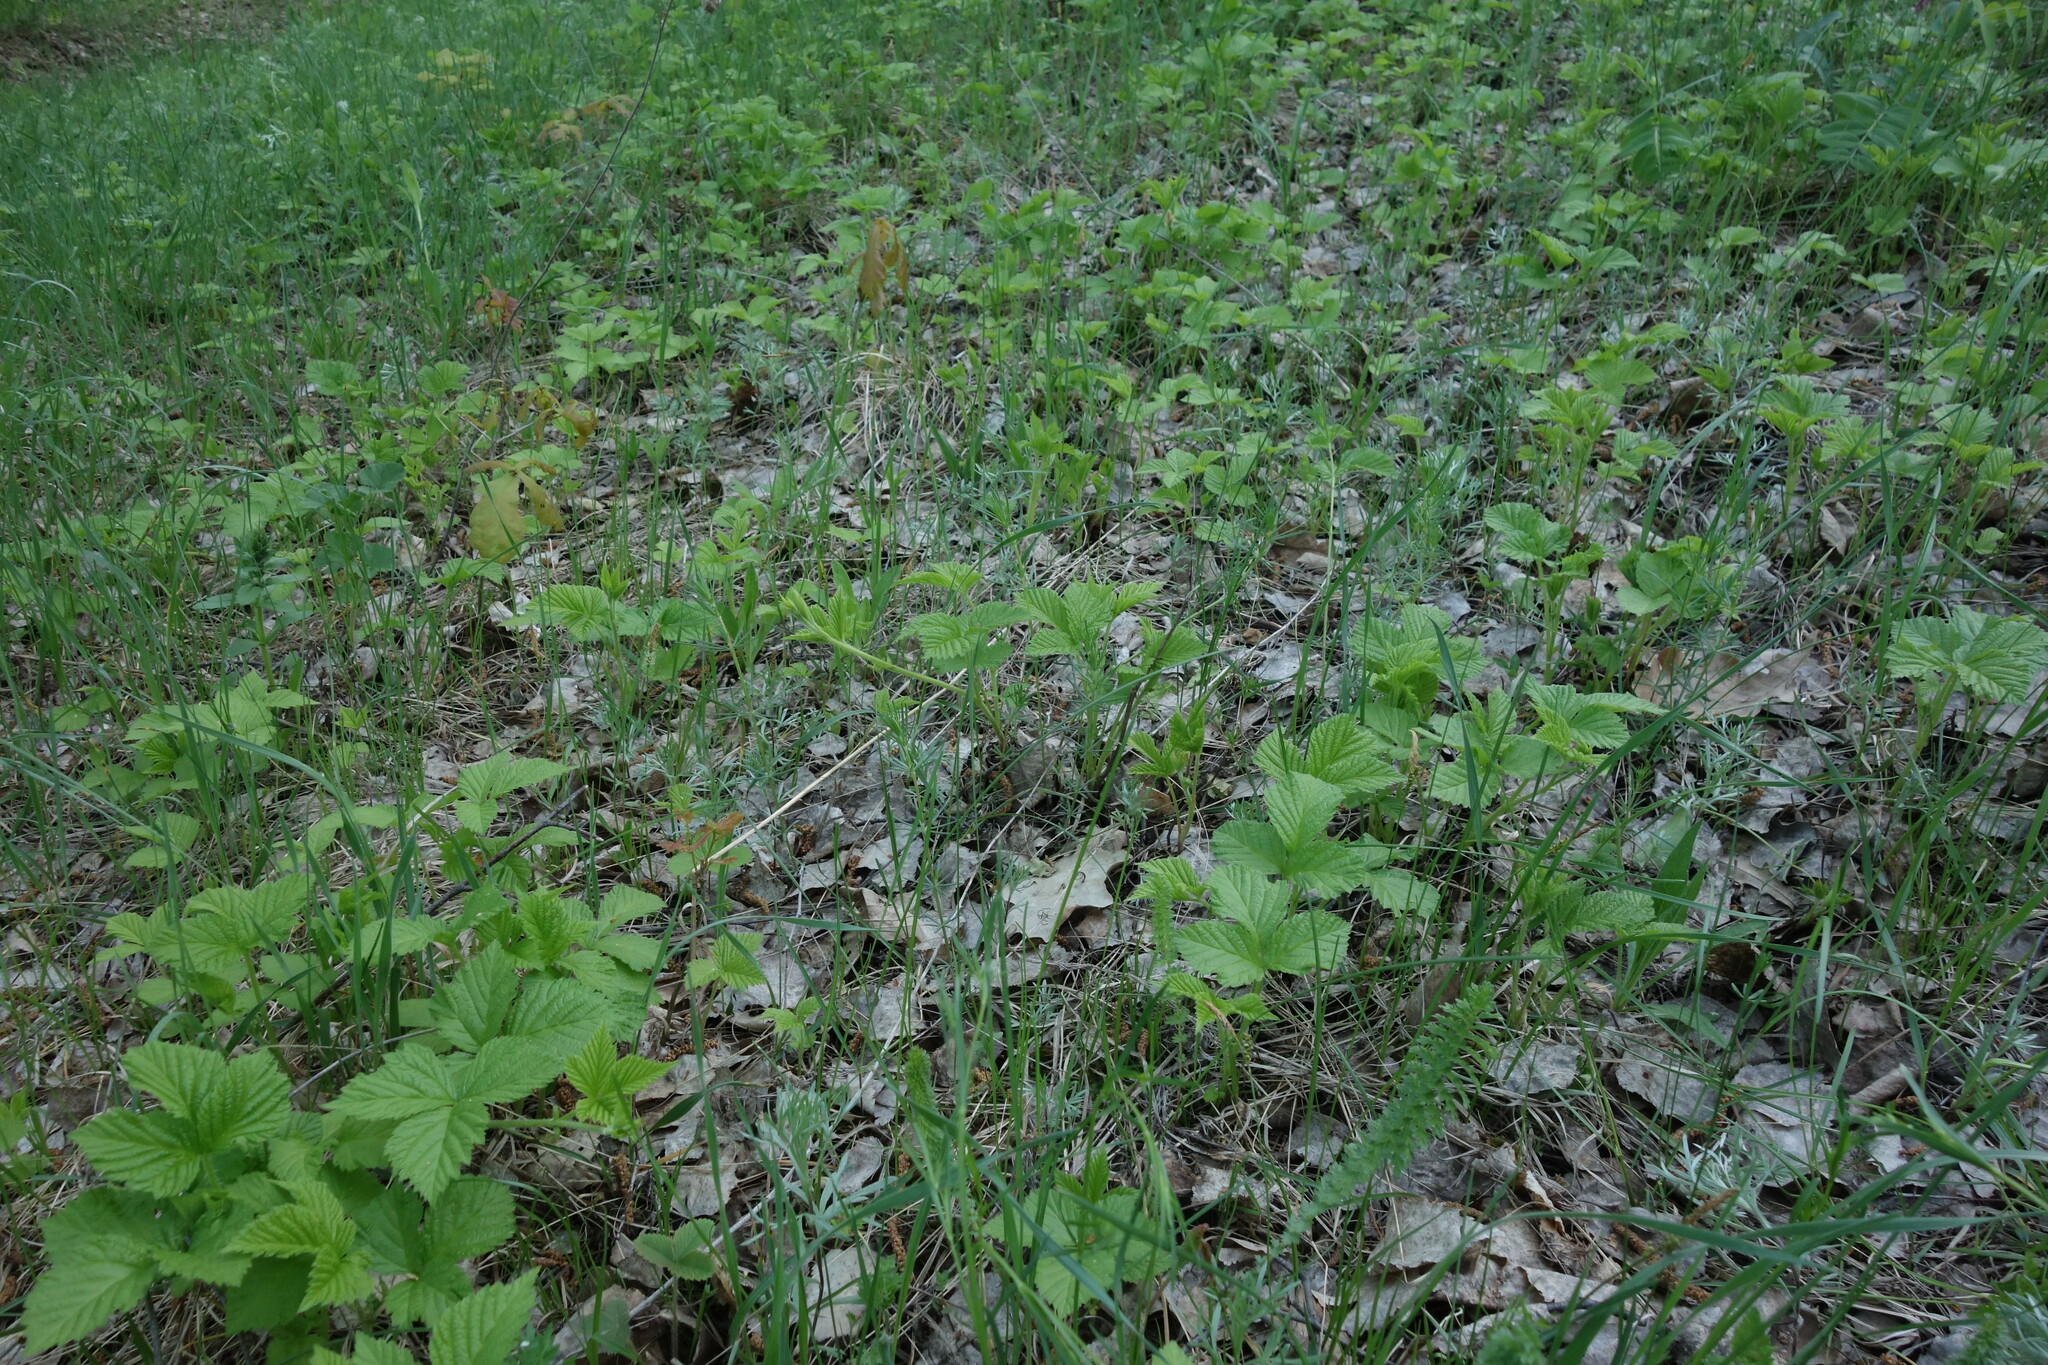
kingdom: Plantae
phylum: Tracheophyta
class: Magnoliopsida
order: Rosales
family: Rosaceae
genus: Rubus
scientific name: Rubus saxatilis
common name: Stone bramble
